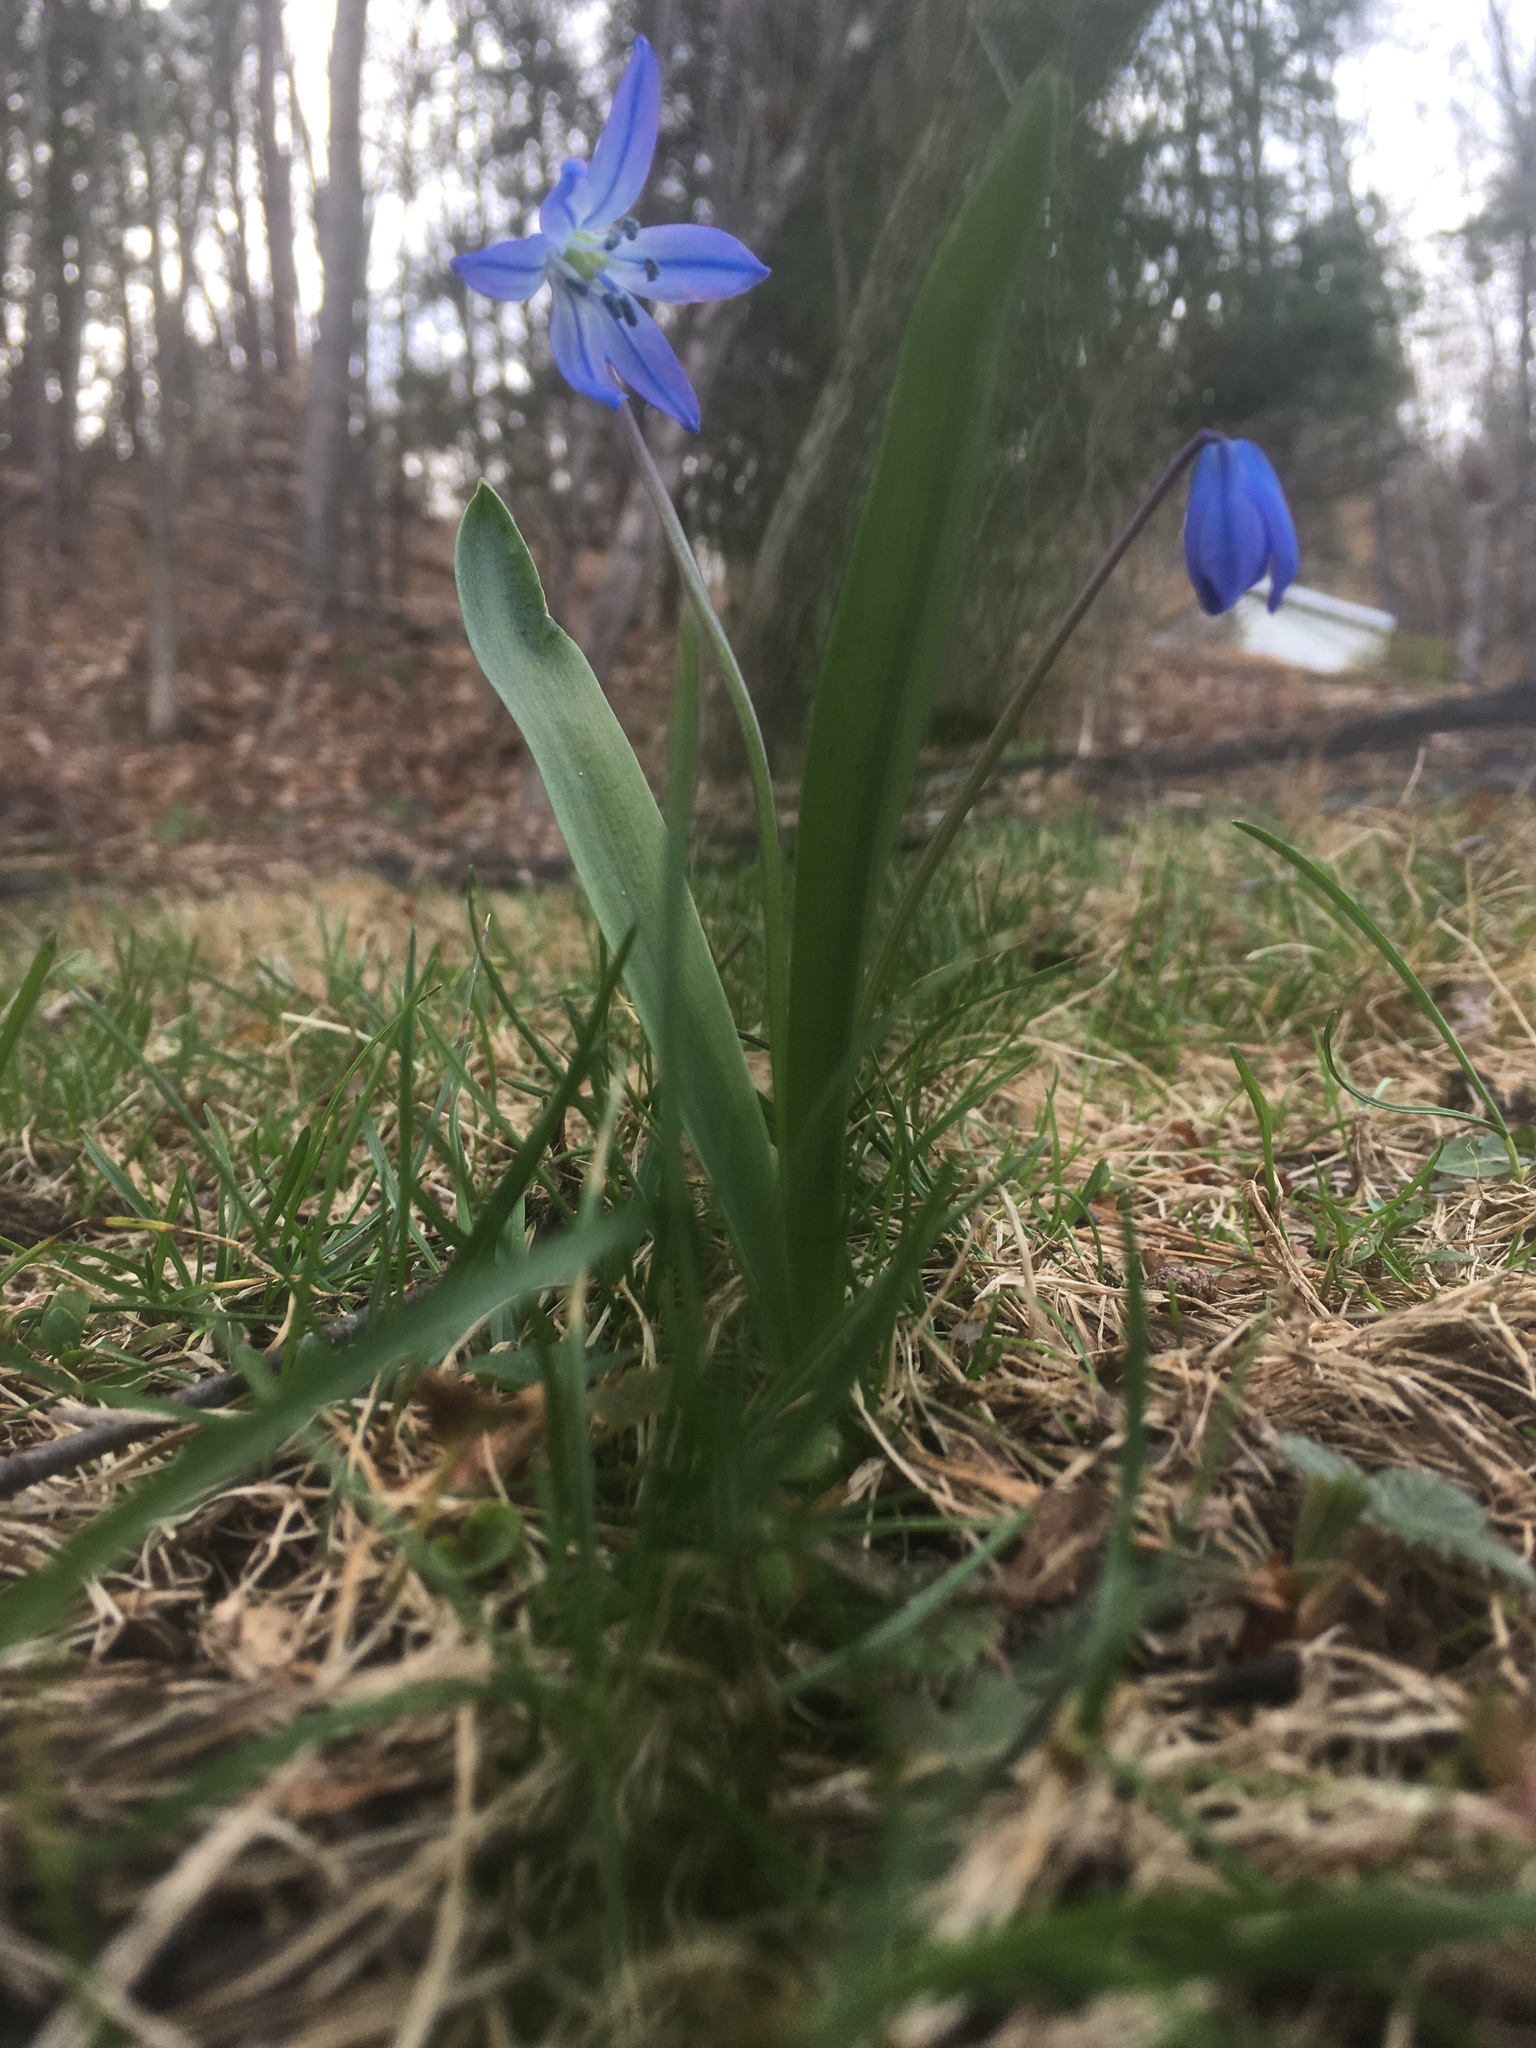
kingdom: Plantae
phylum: Tracheophyta
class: Liliopsida
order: Asparagales
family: Asparagaceae
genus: Scilla
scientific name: Scilla siberica
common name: Siberian squill
